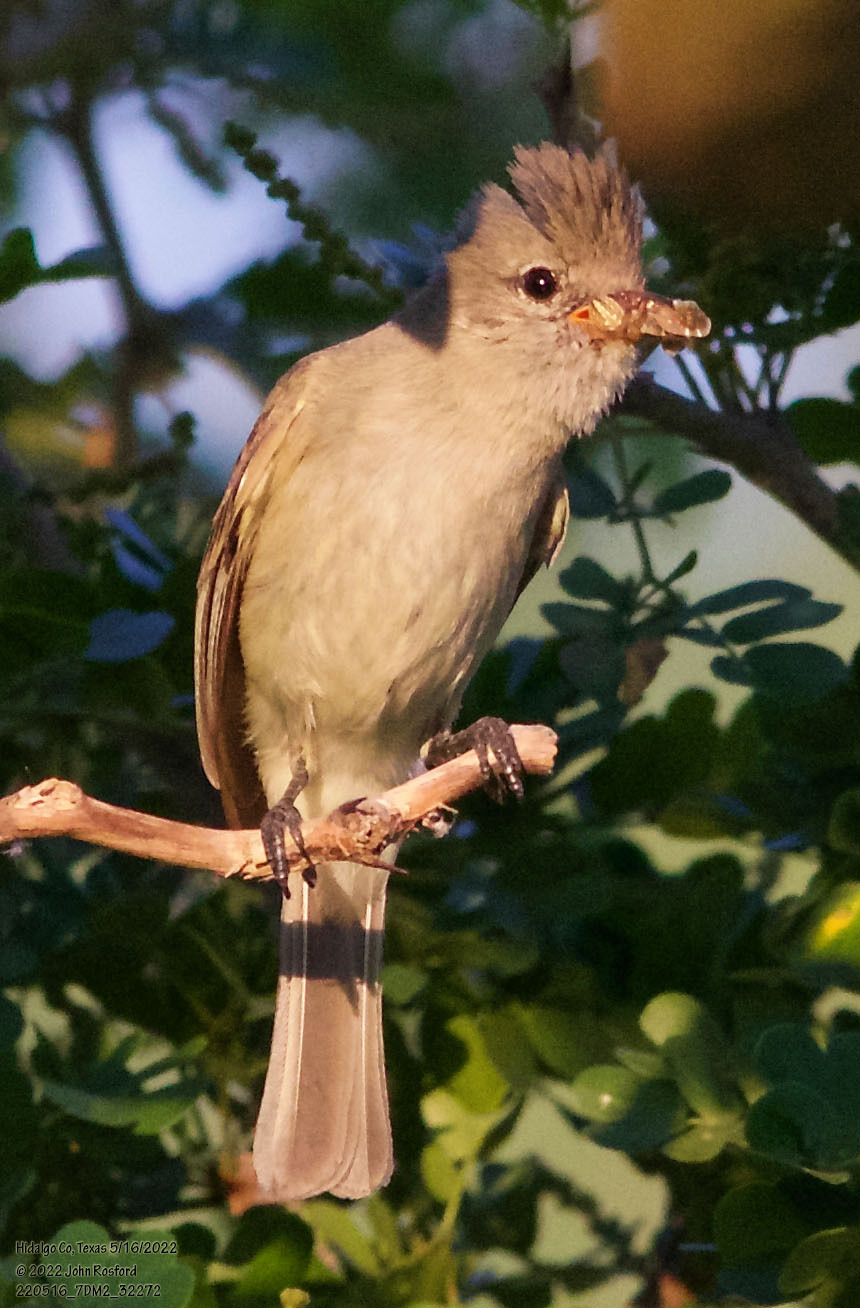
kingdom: Animalia
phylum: Chordata
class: Aves
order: Passeriformes
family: Tyrannidae
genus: Camptostoma
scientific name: Camptostoma imberbe
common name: Northern beardless-tyrannulet
